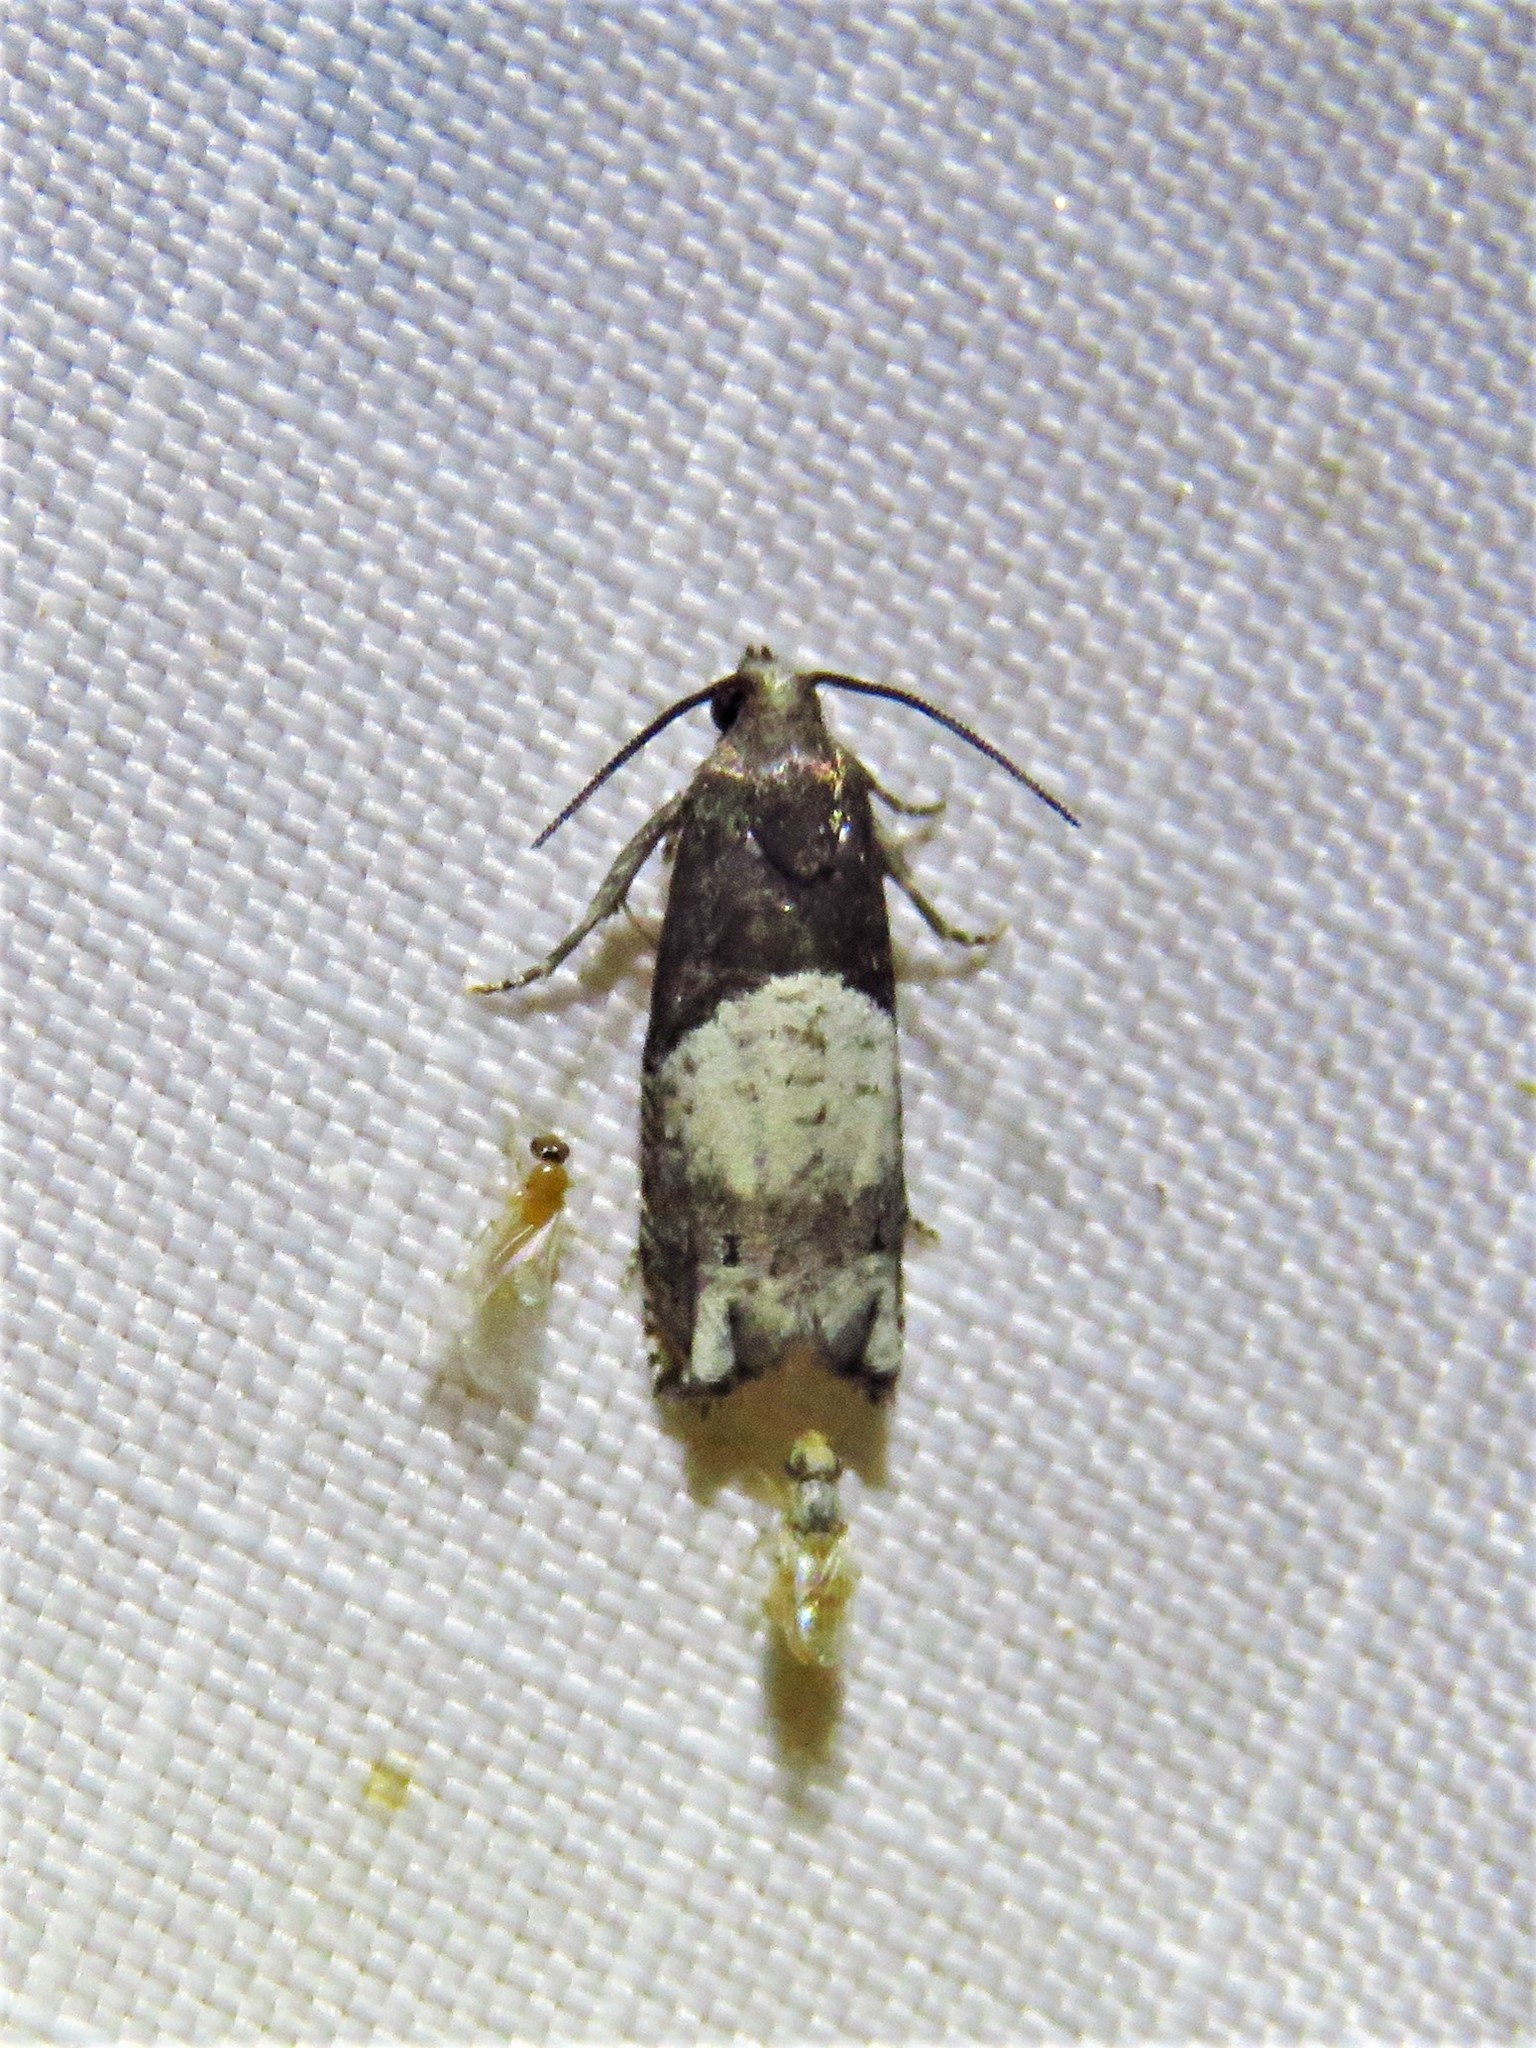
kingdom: Animalia
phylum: Arthropoda
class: Insecta
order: Lepidoptera
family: Tortricidae
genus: Epiblema
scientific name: Epiblema scudderiana
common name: Goldenrod gall moth
